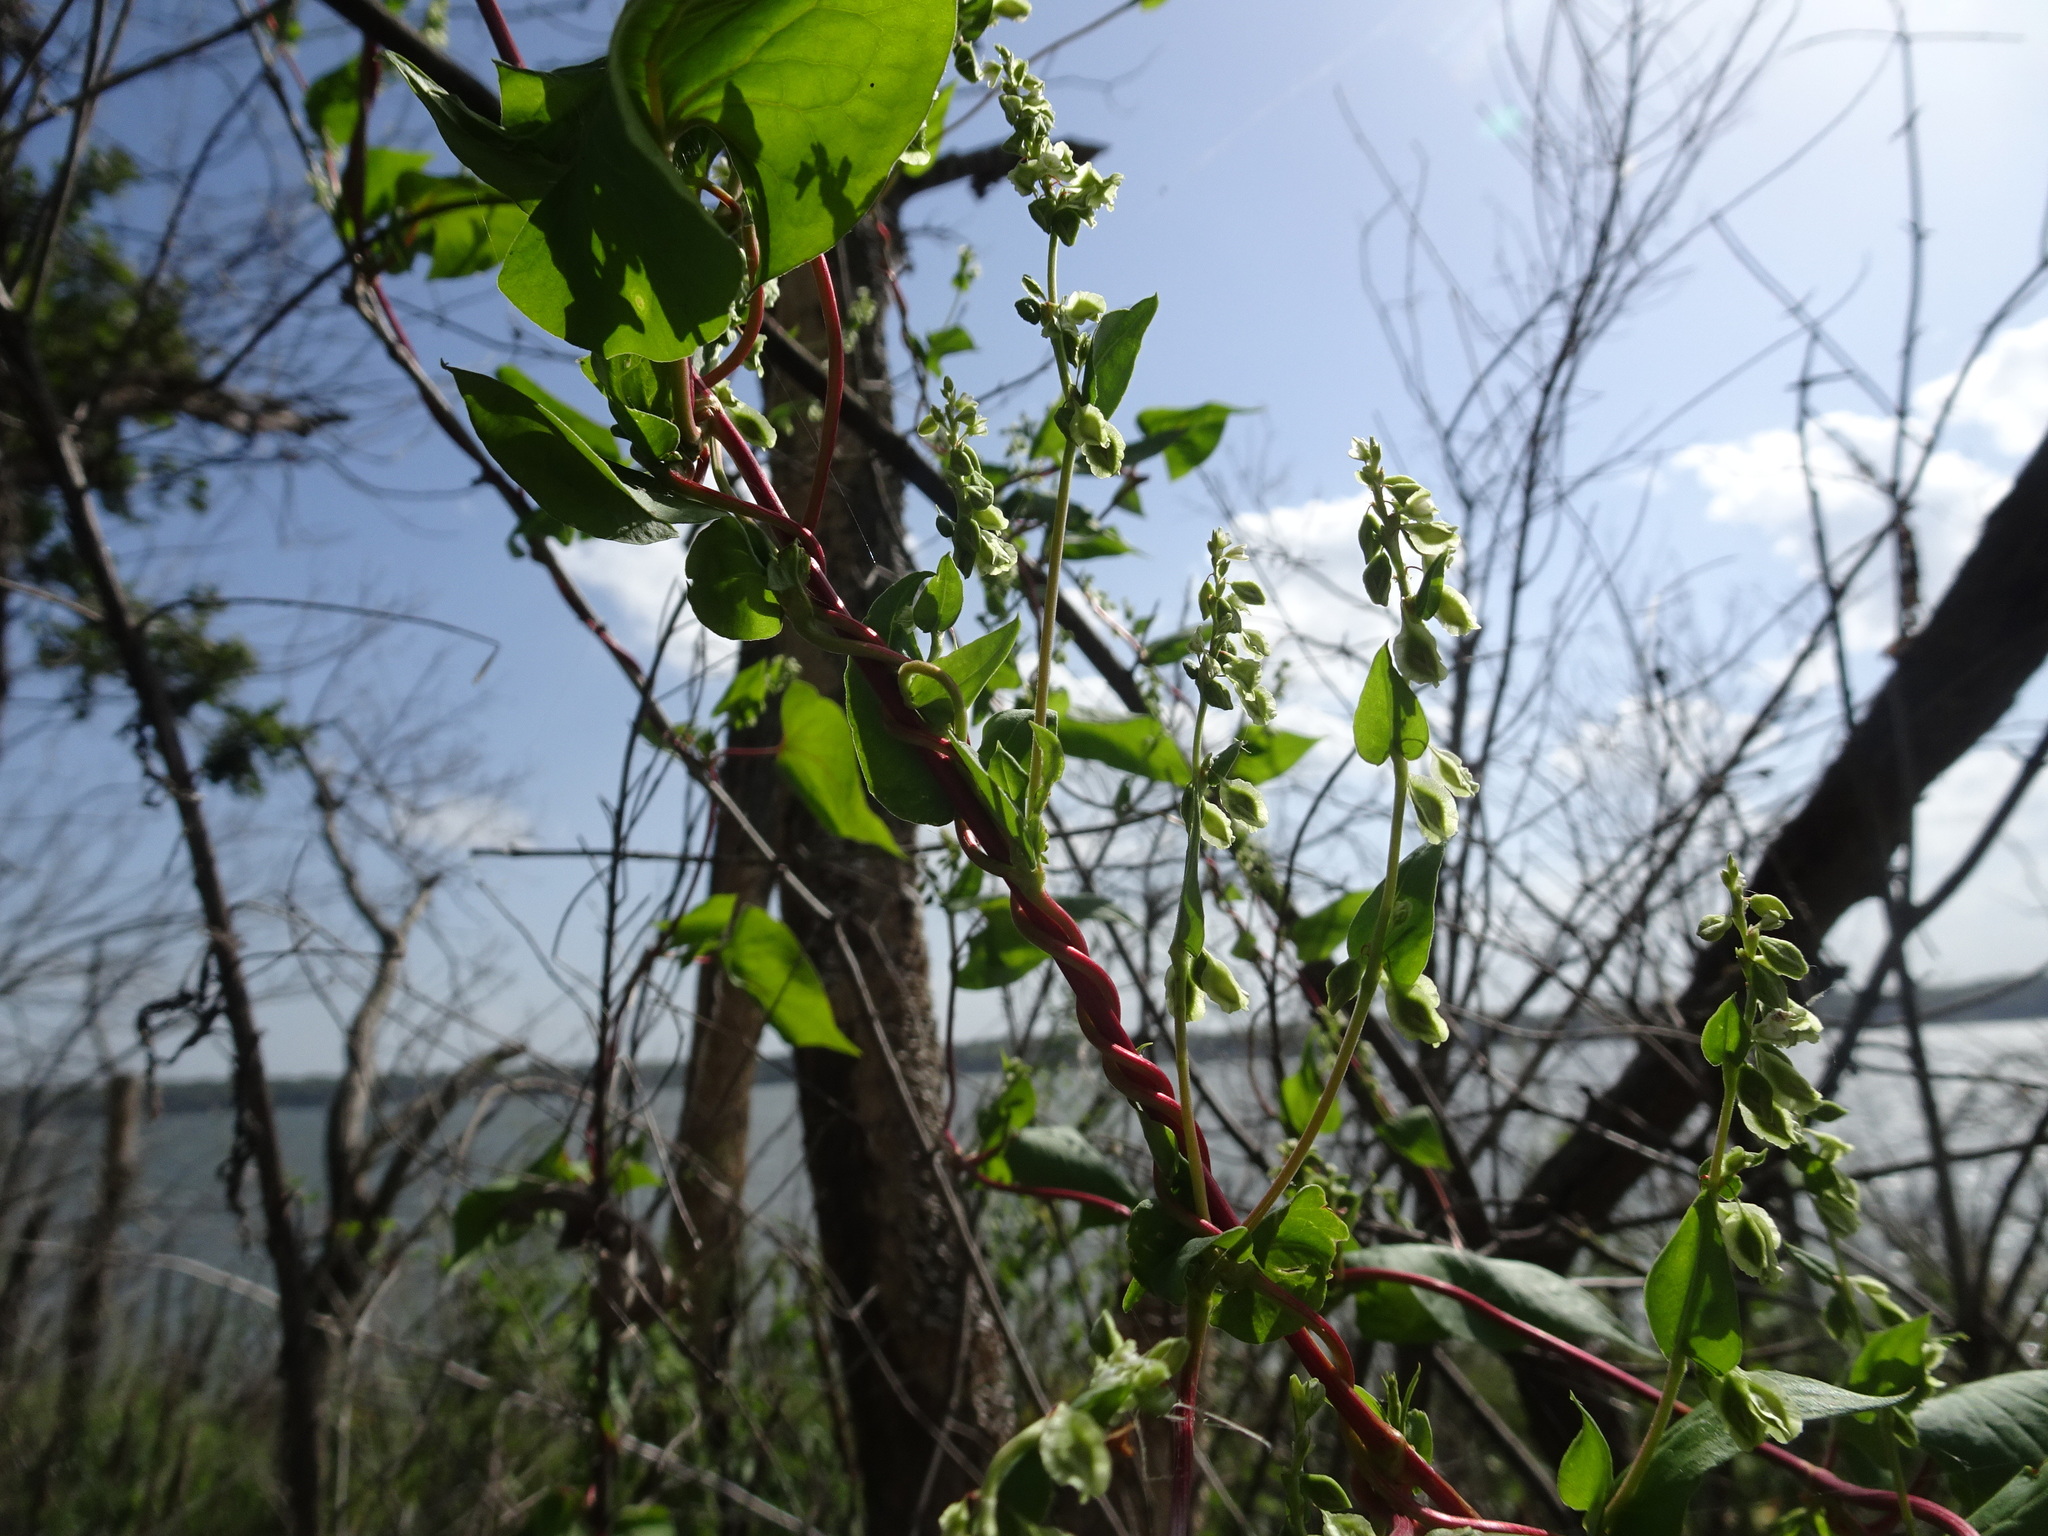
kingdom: Plantae
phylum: Tracheophyta
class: Magnoliopsida
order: Caryophyllales
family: Polygonaceae
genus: Fallopia
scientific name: Fallopia scandens
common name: Climbing false buckwheat
